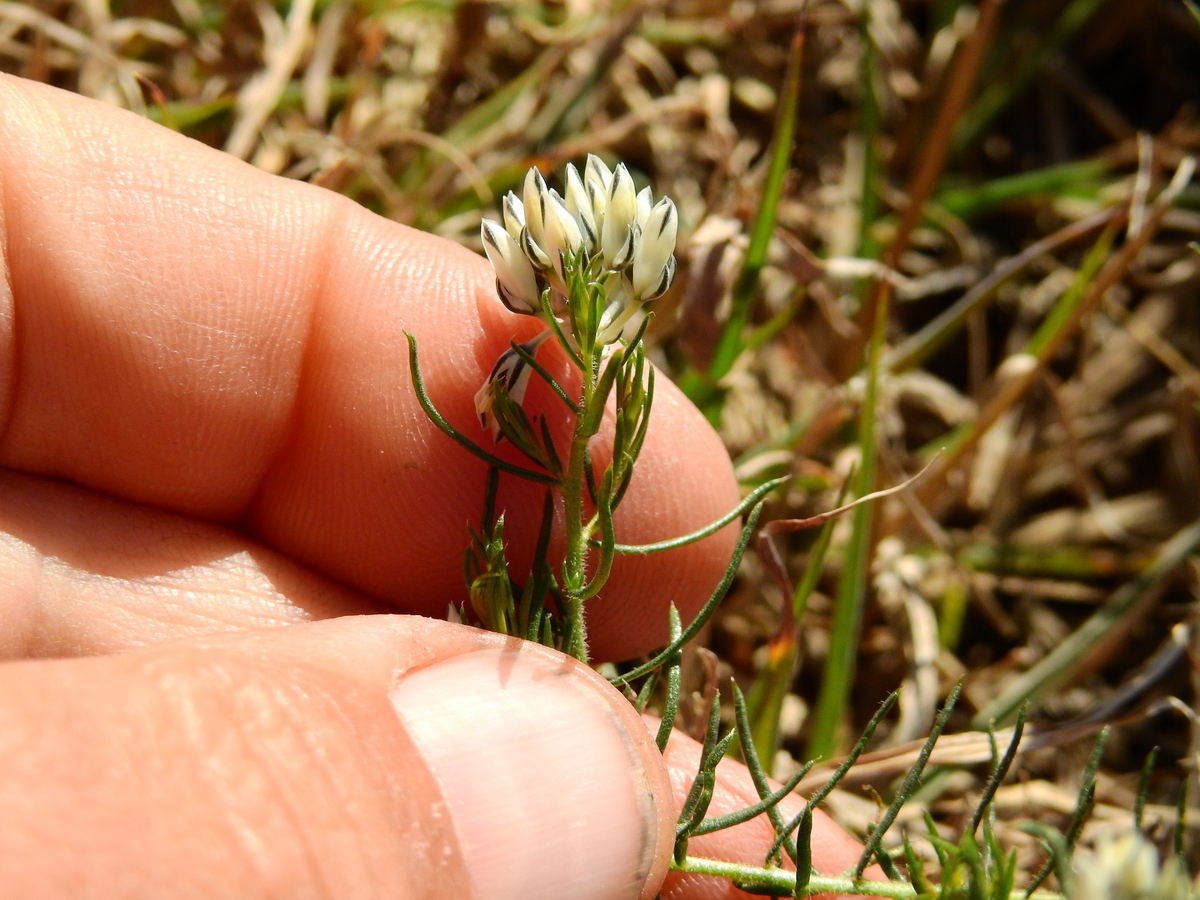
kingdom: Plantae
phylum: Tracheophyta
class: Magnoliopsida
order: Fabales
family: Polygalaceae
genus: Polygala
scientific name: Polygala aspalatha
